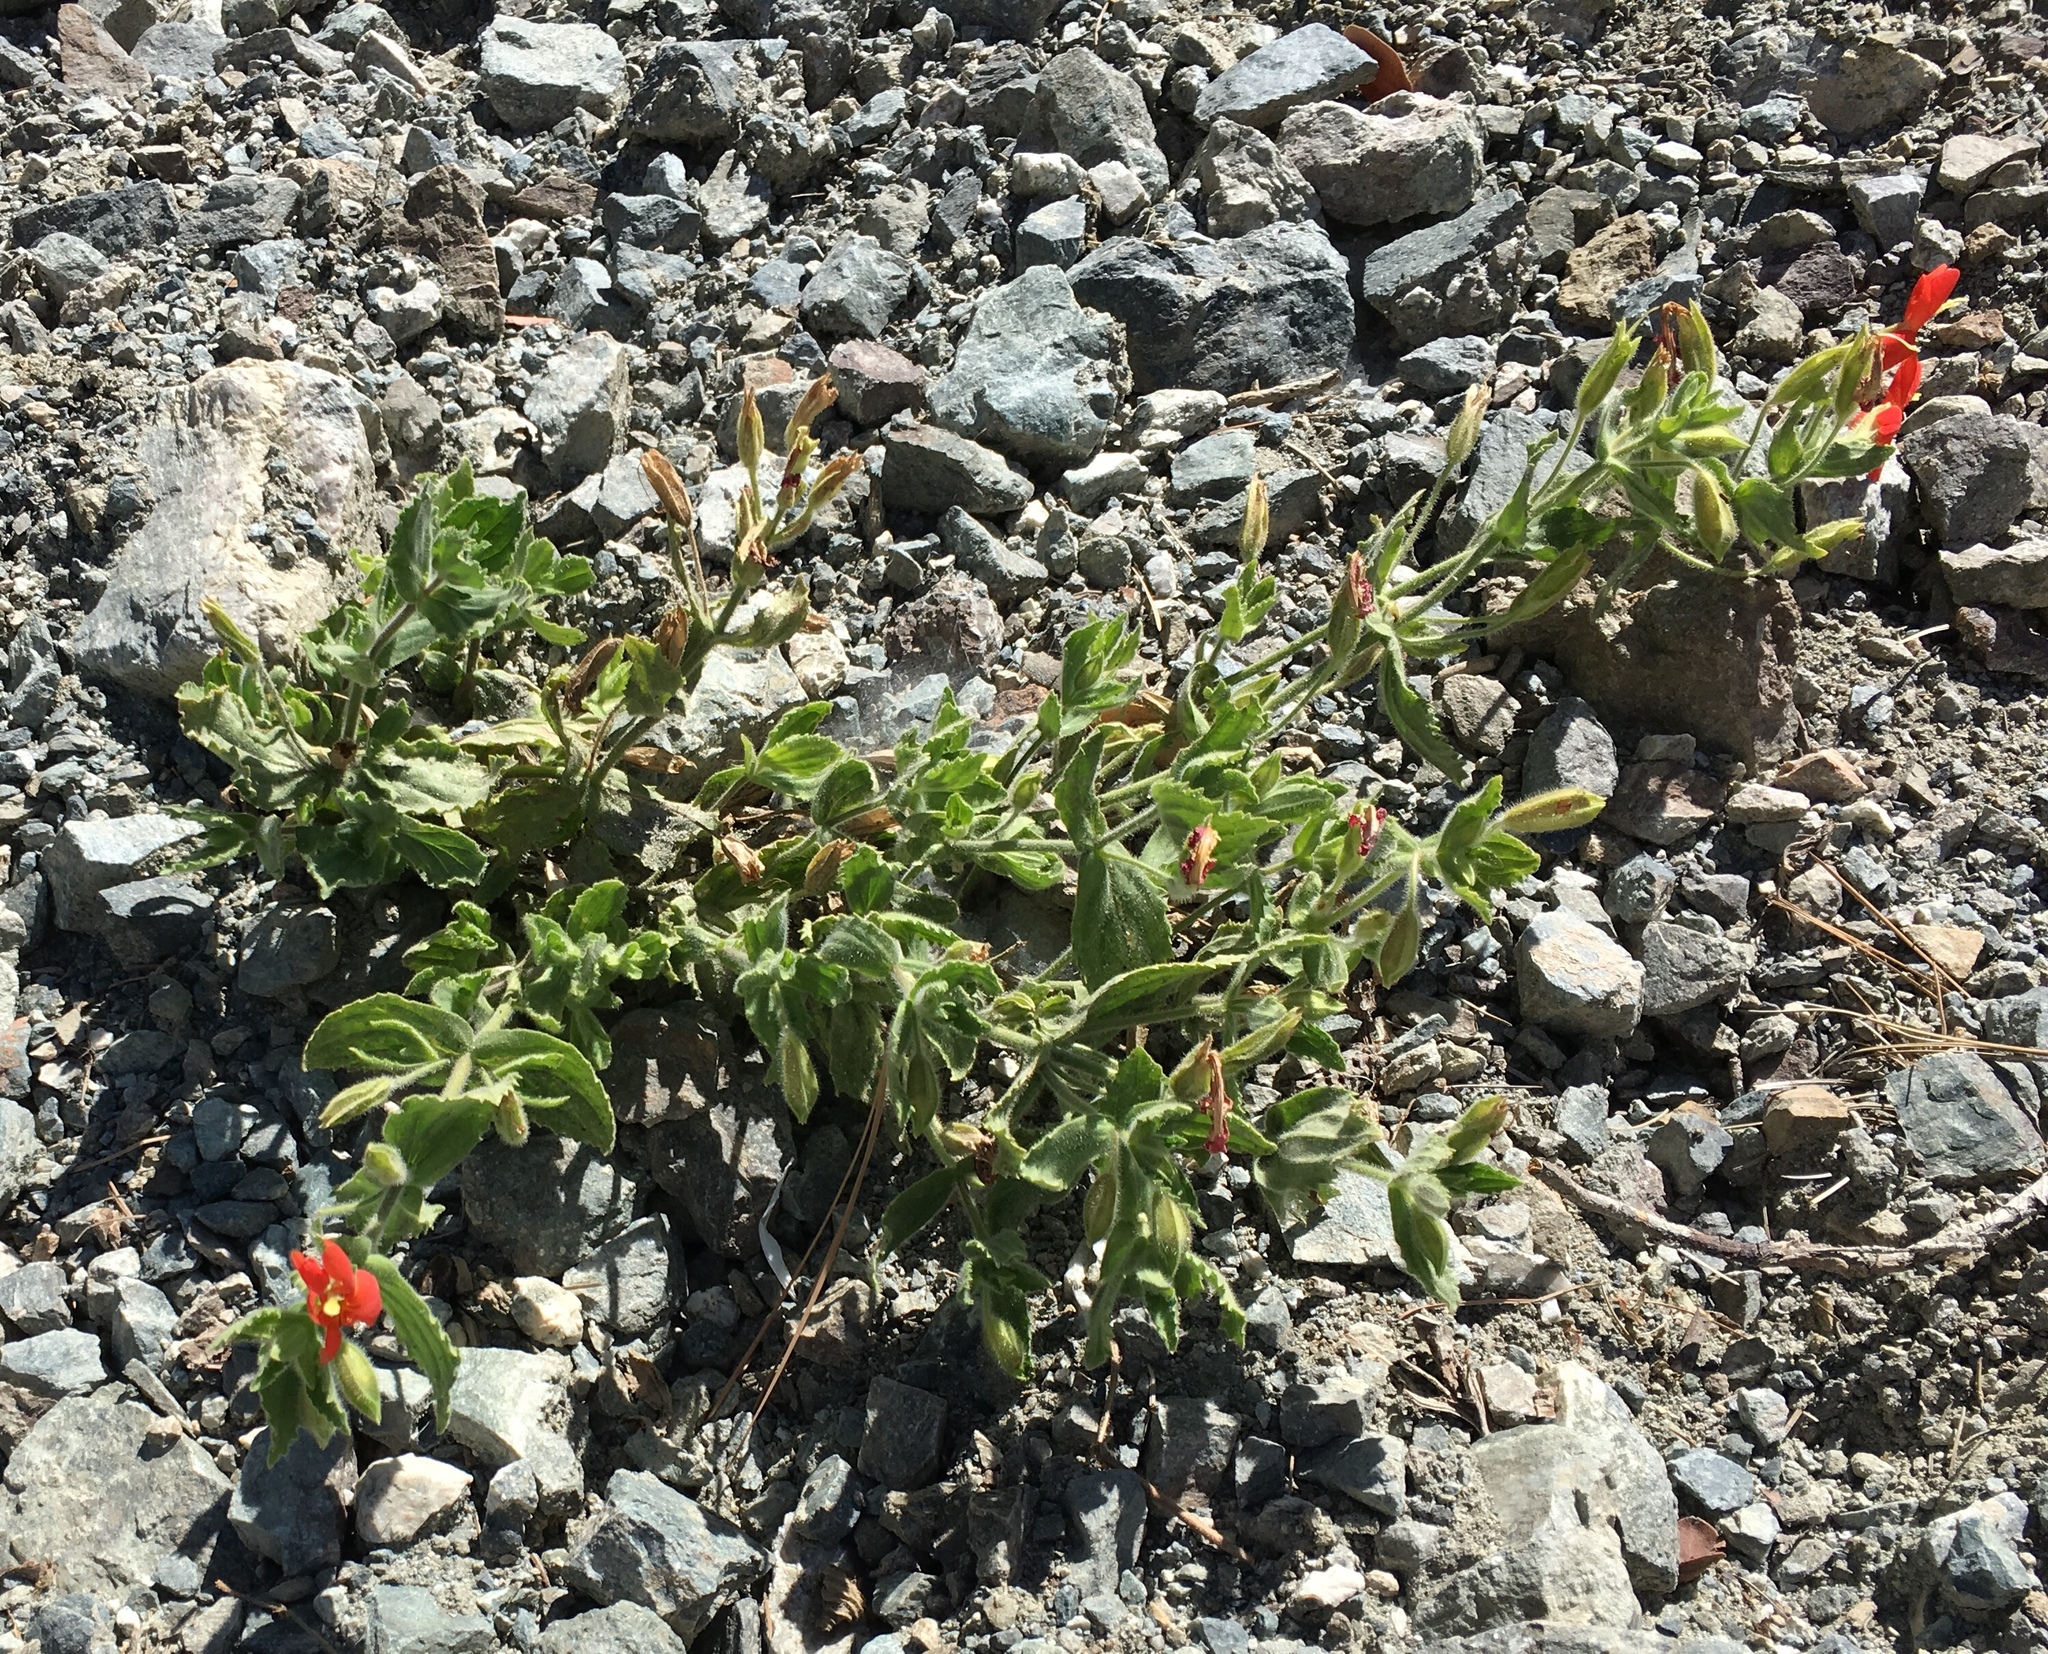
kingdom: Plantae
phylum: Tracheophyta
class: Magnoliopsida
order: Lamiales
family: Phrymaceae
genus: Erythranthe
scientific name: Erythranthe cardinalis
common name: Scarlet monkey-flower
